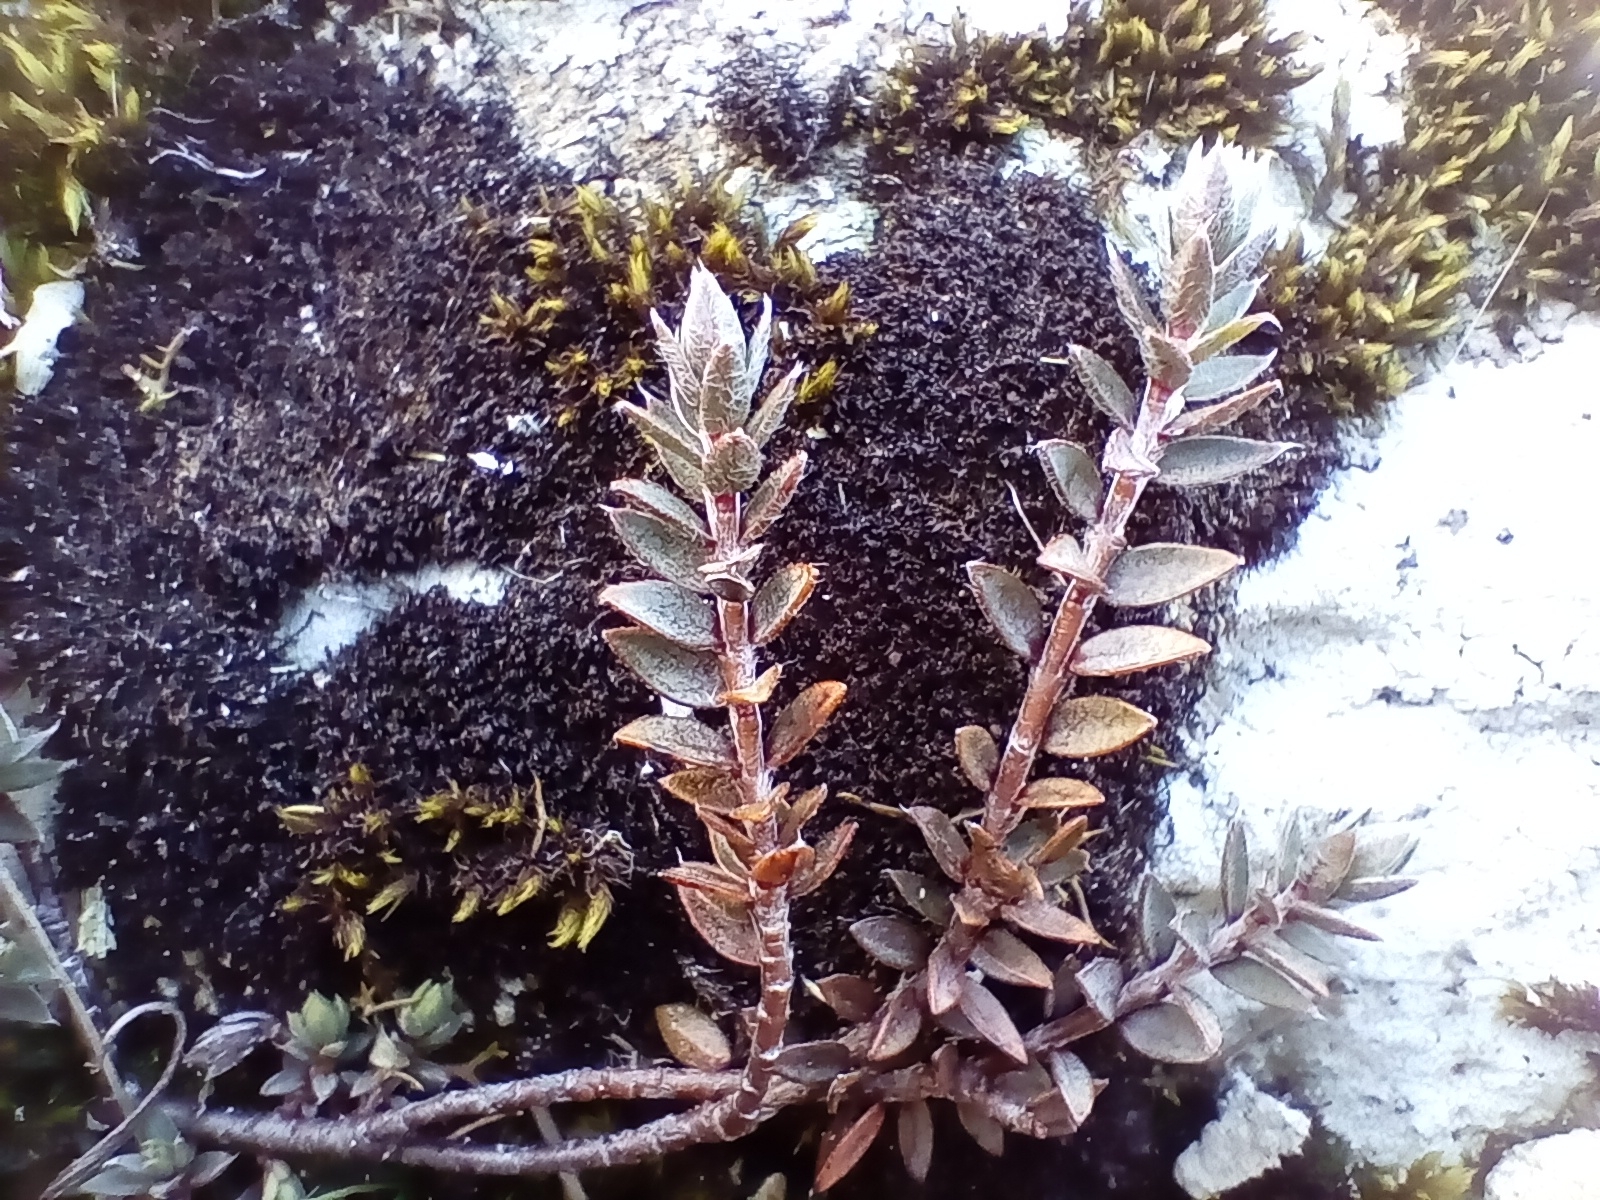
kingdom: Plantae
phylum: Tracheophyta
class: Magnoliopsida
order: Malvales
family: Thymelaeaceae
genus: Pimelea
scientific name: Pimelea oreophila
